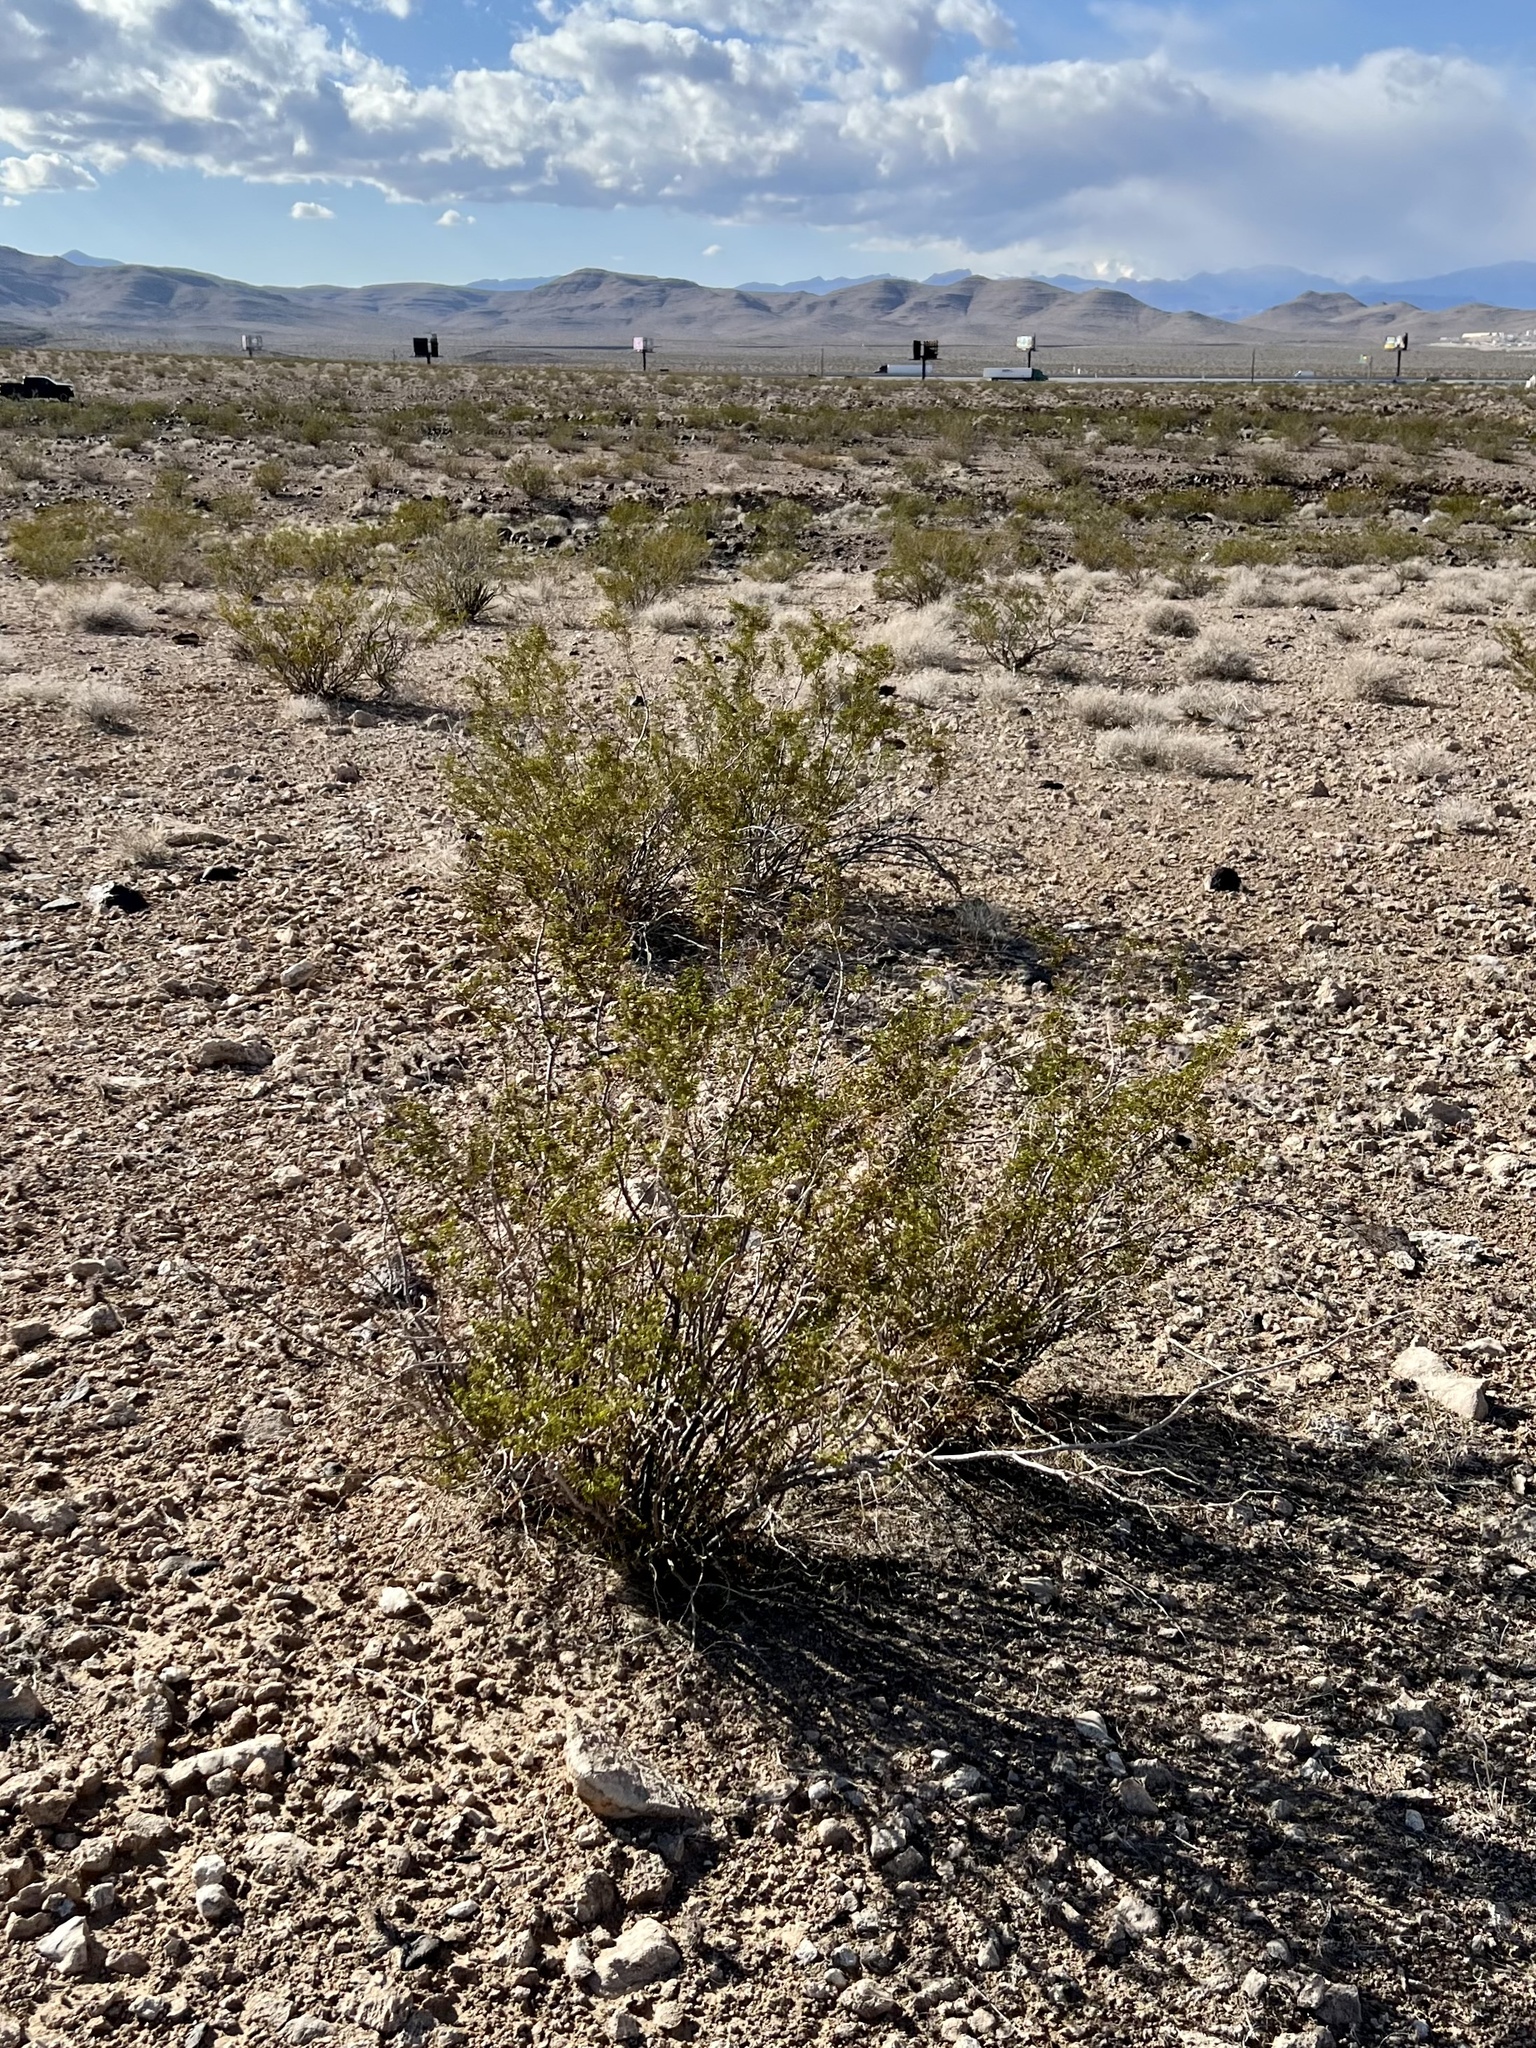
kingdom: Plantae
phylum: Tracheophyta
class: Magnoliopsida
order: Zygophyllales
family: Zygophyllaceae
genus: Larrea
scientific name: Larrea tridentata
